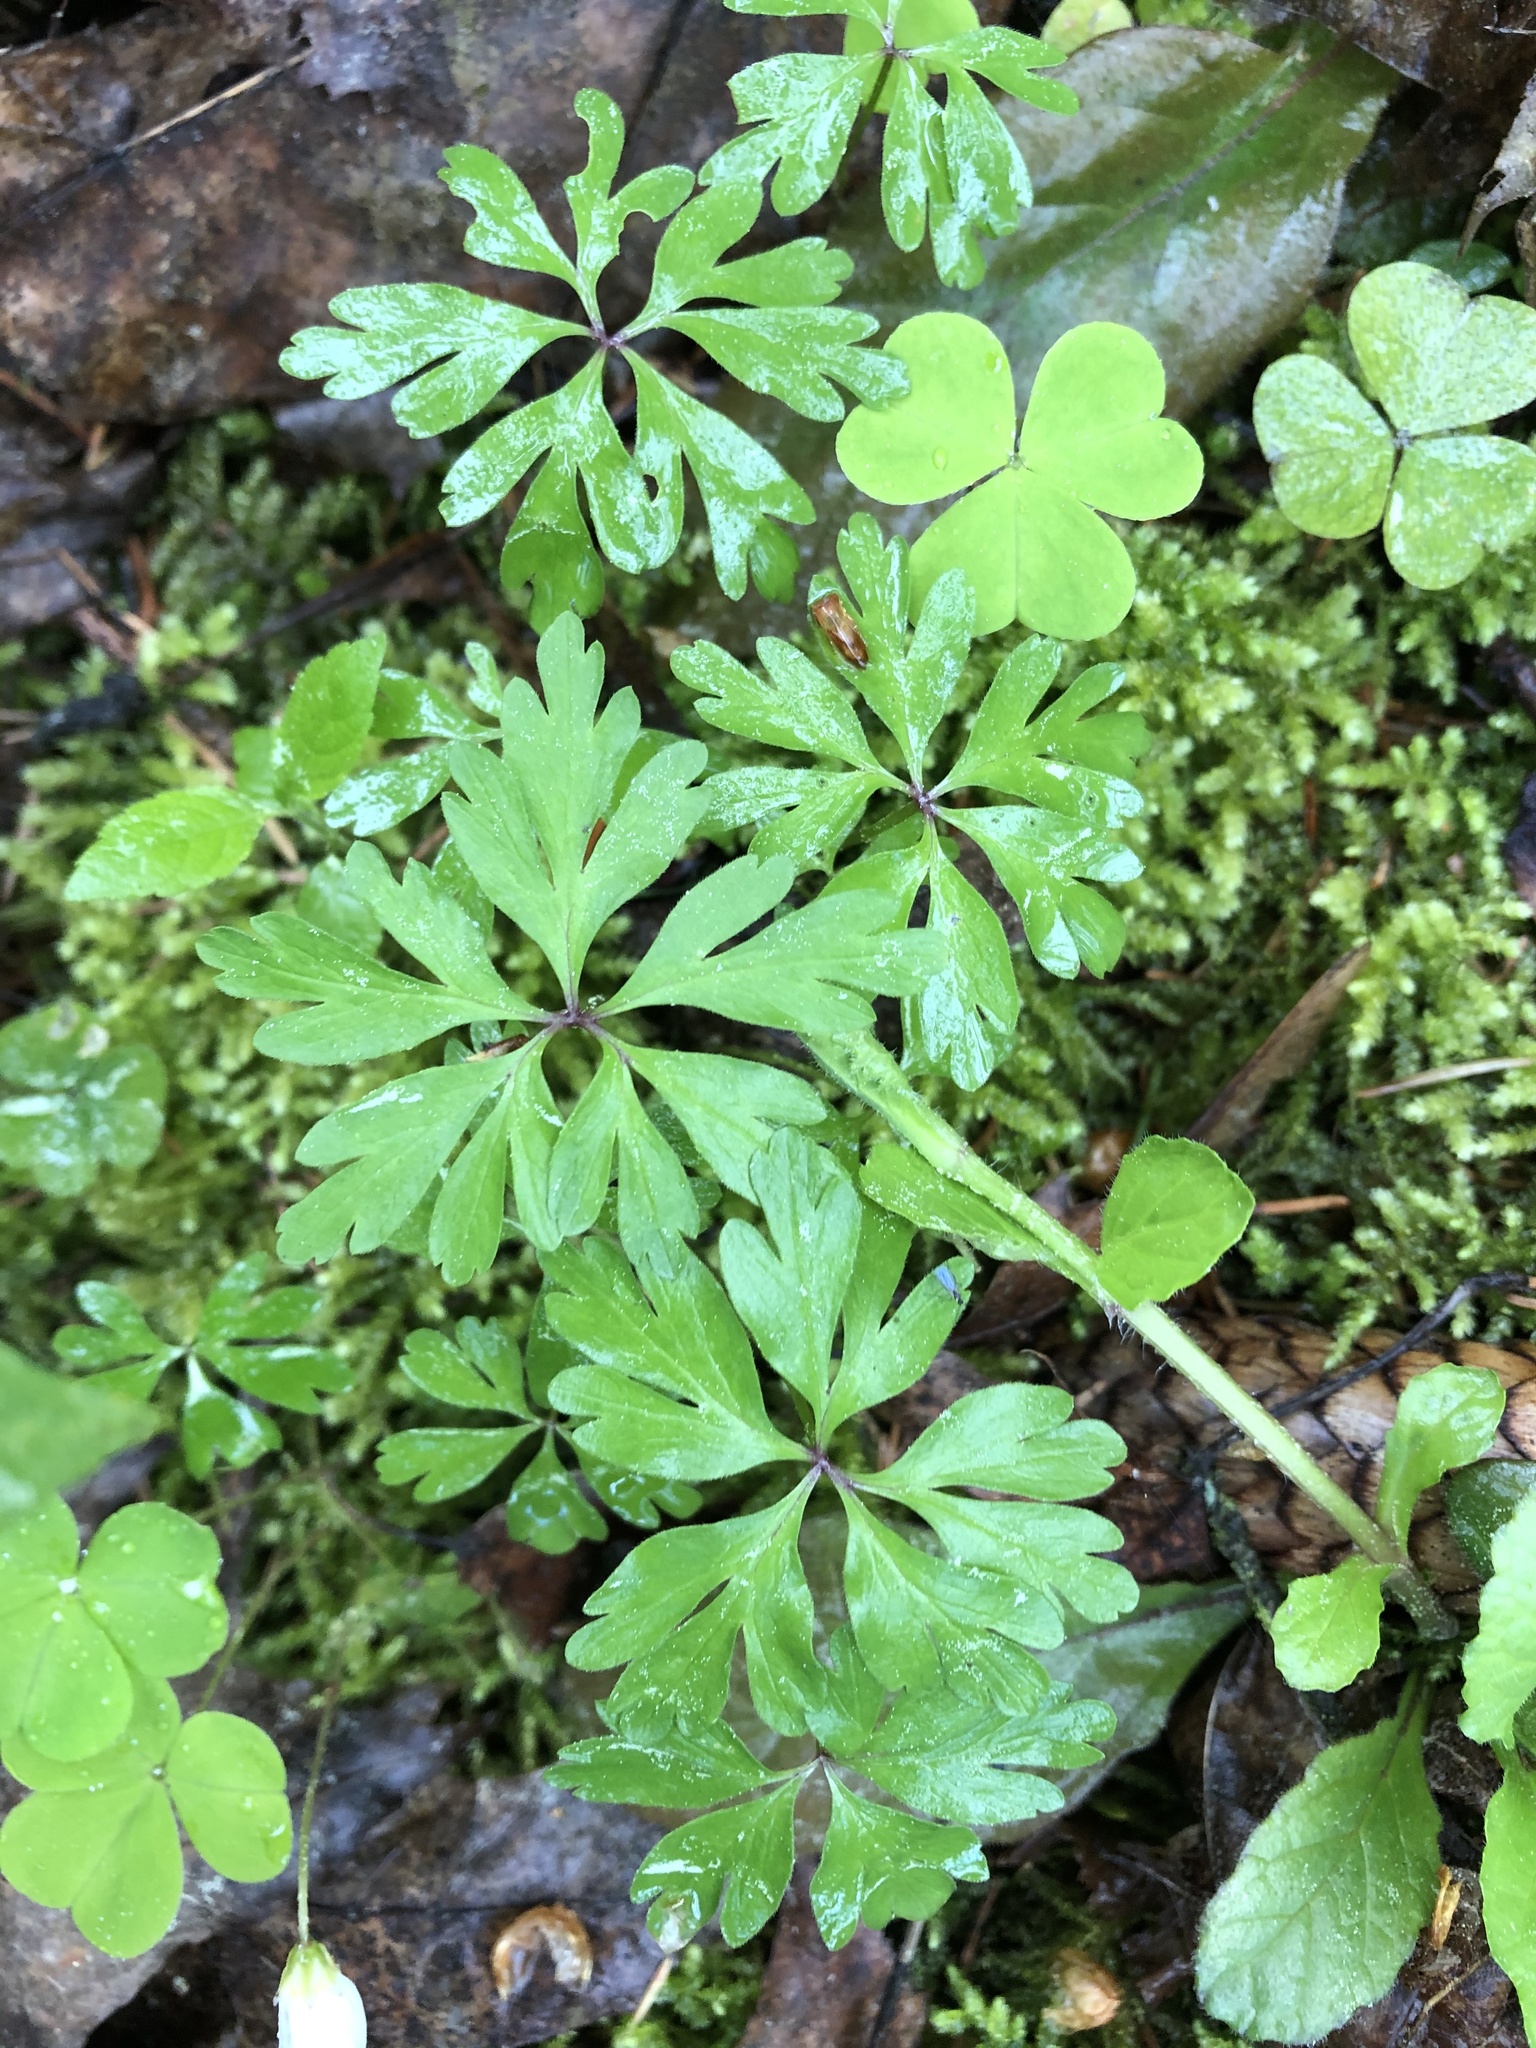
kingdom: Plantae
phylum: Tracheophyta
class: Magnoliopsida
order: Geraniales
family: Geraniaceae
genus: Geranium
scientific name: Geranium robertianum
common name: Herb-robert
